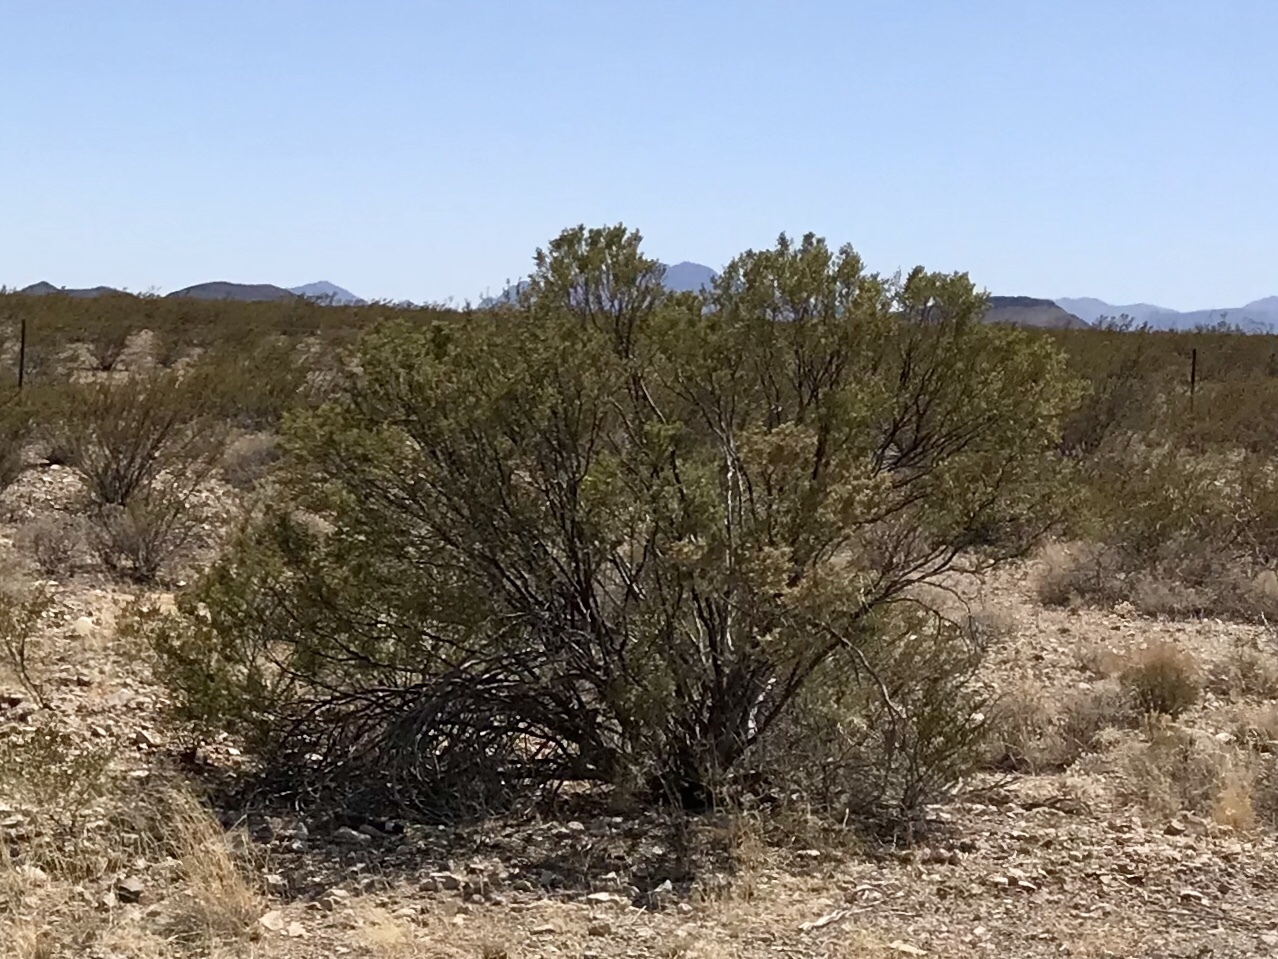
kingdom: Plantae
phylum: Tracheophyta
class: Magnoliopsida
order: Zygophyllales
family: Zygophyllaceae
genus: Larrea
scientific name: Larrea tridentata
